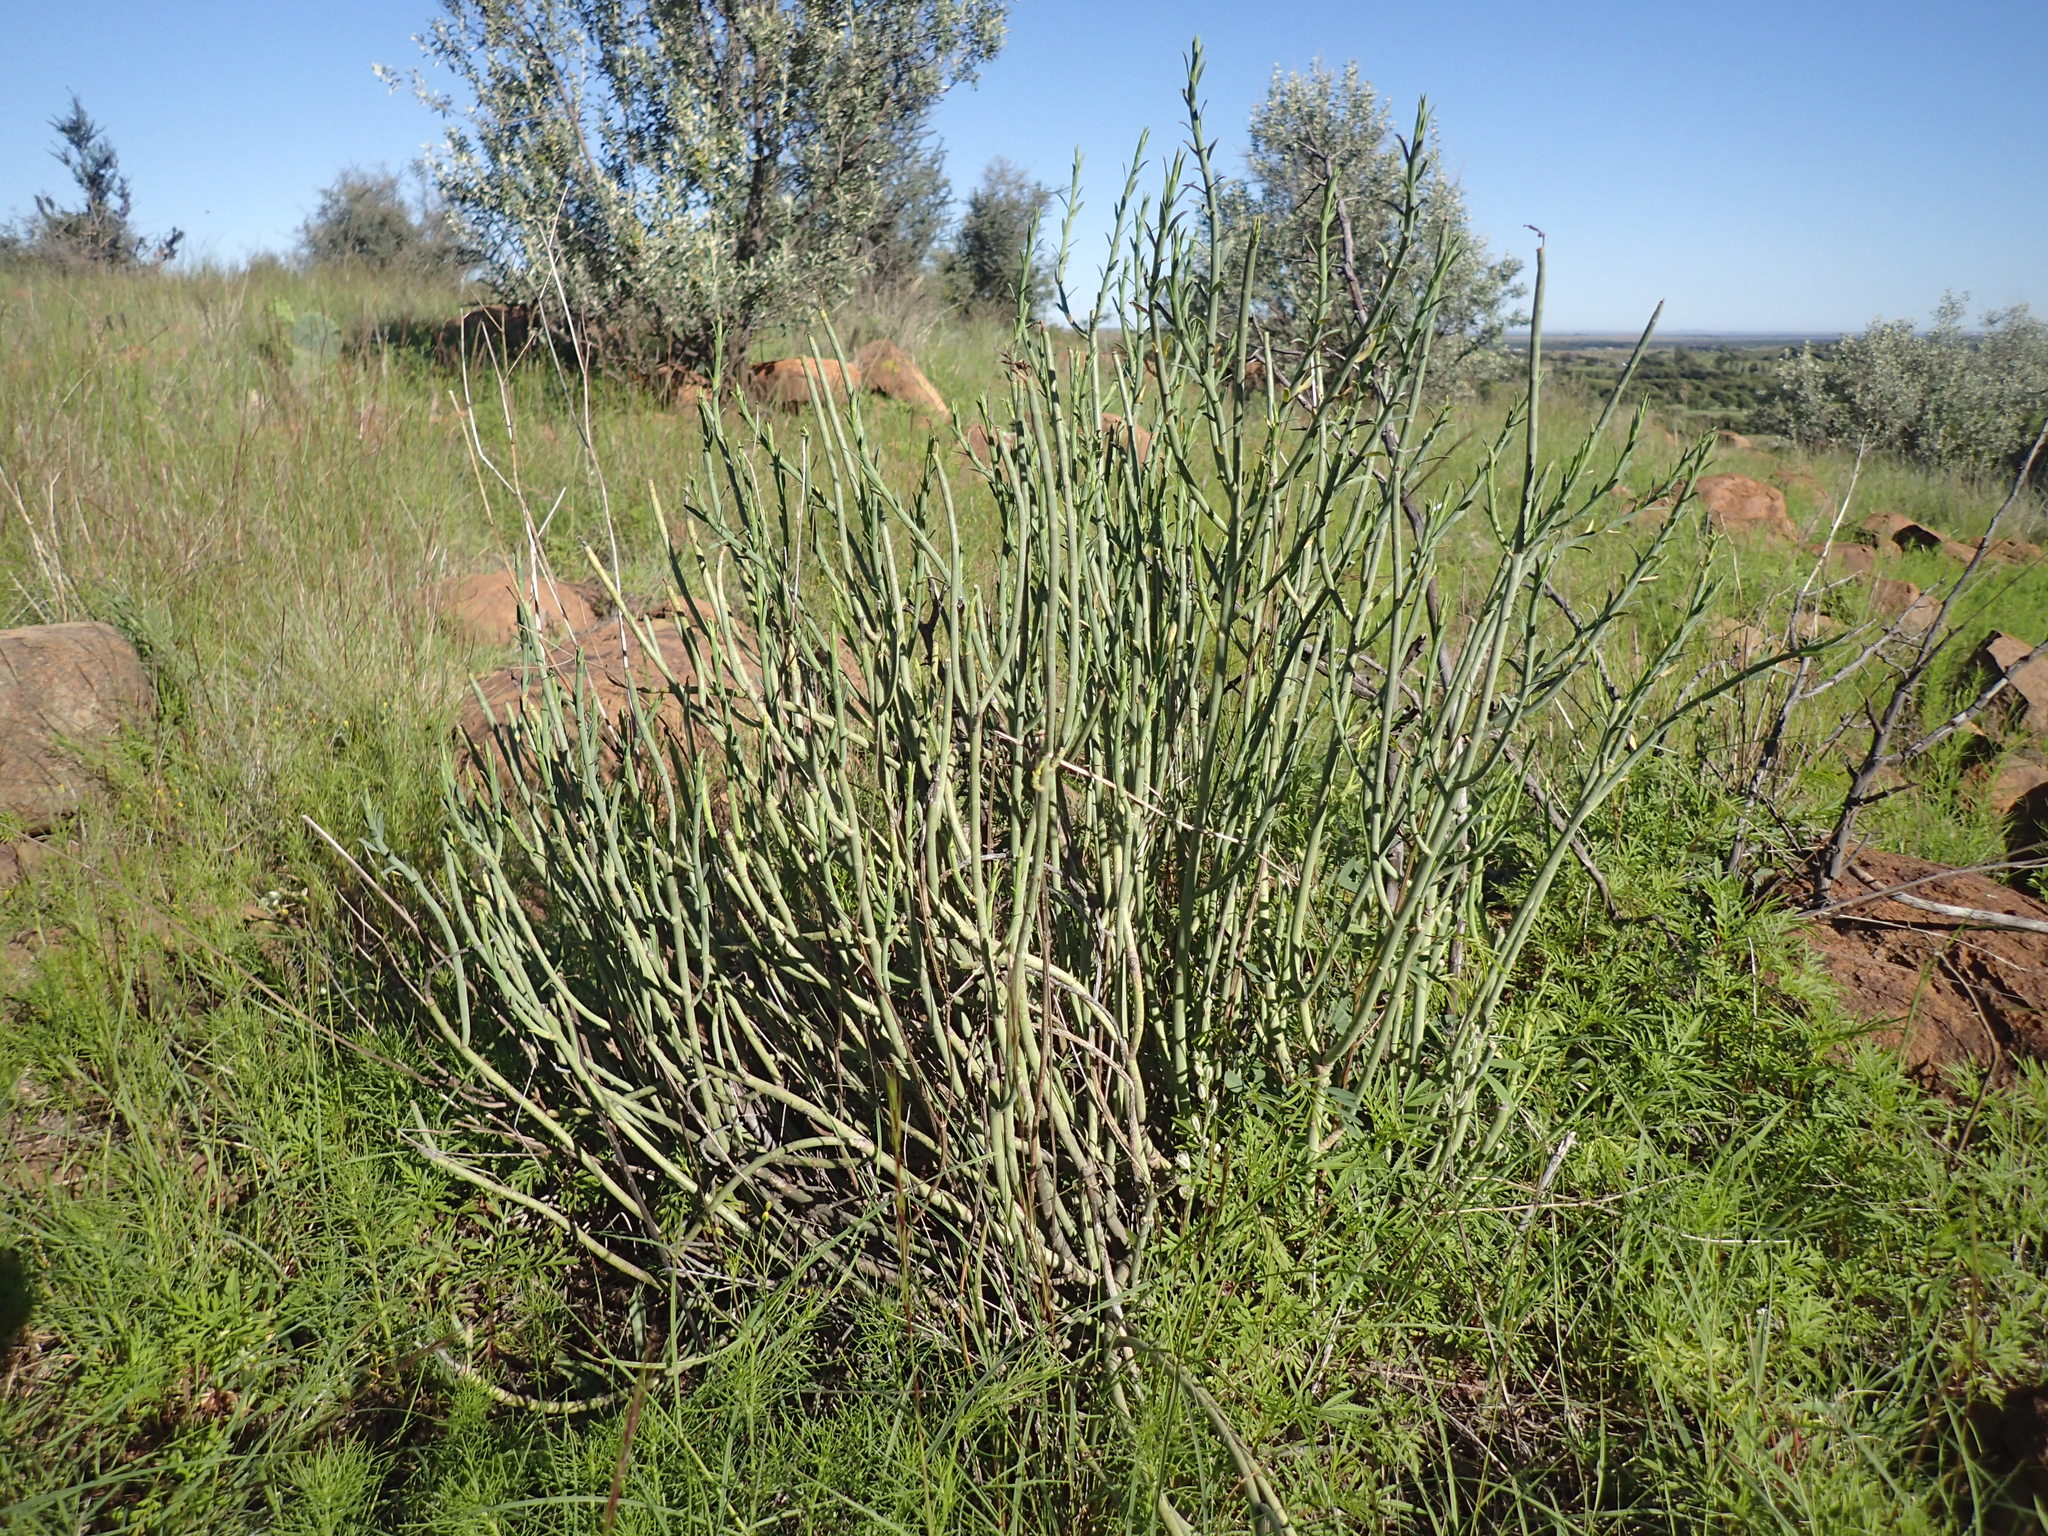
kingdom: Plantae
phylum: Tracheophyta
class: Magnoliopsida
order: Malpighiales
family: Euphorbiaceae
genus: Euphorbia
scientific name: Euphorbia mauritanica
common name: Jackal's-food
